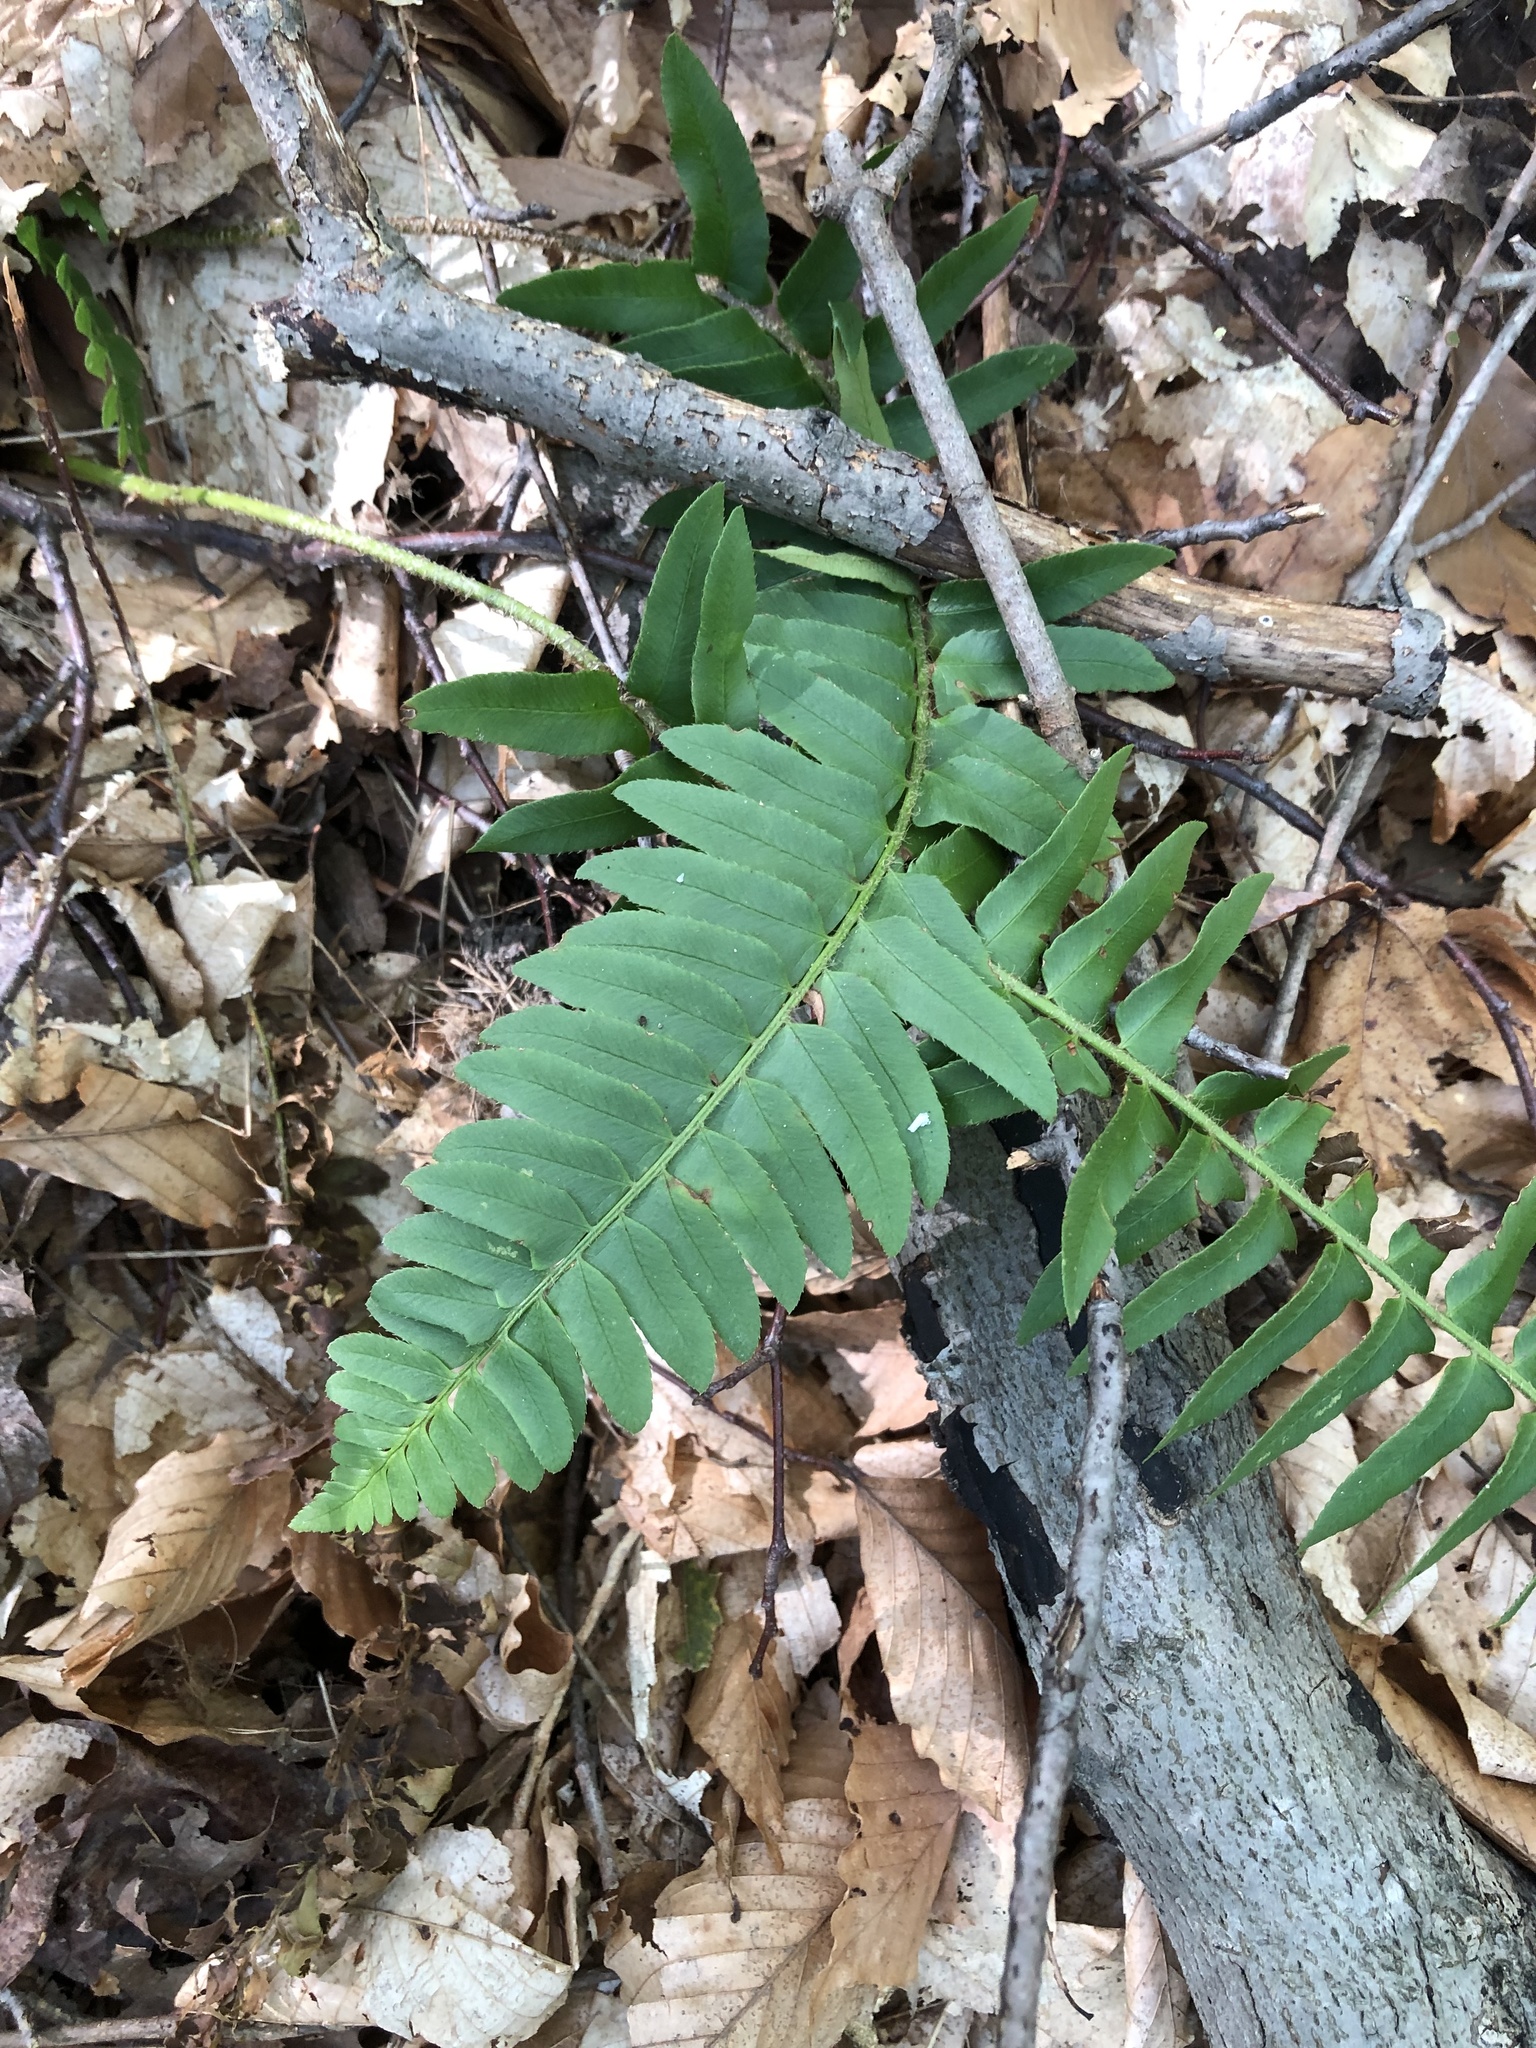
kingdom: Plantae
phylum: Tracheophyta
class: Polypodiopsida
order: Polypodiales
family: Dryopteridaceae
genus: Polystichum
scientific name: Polystichum acrostichoides
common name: Christmas fern
